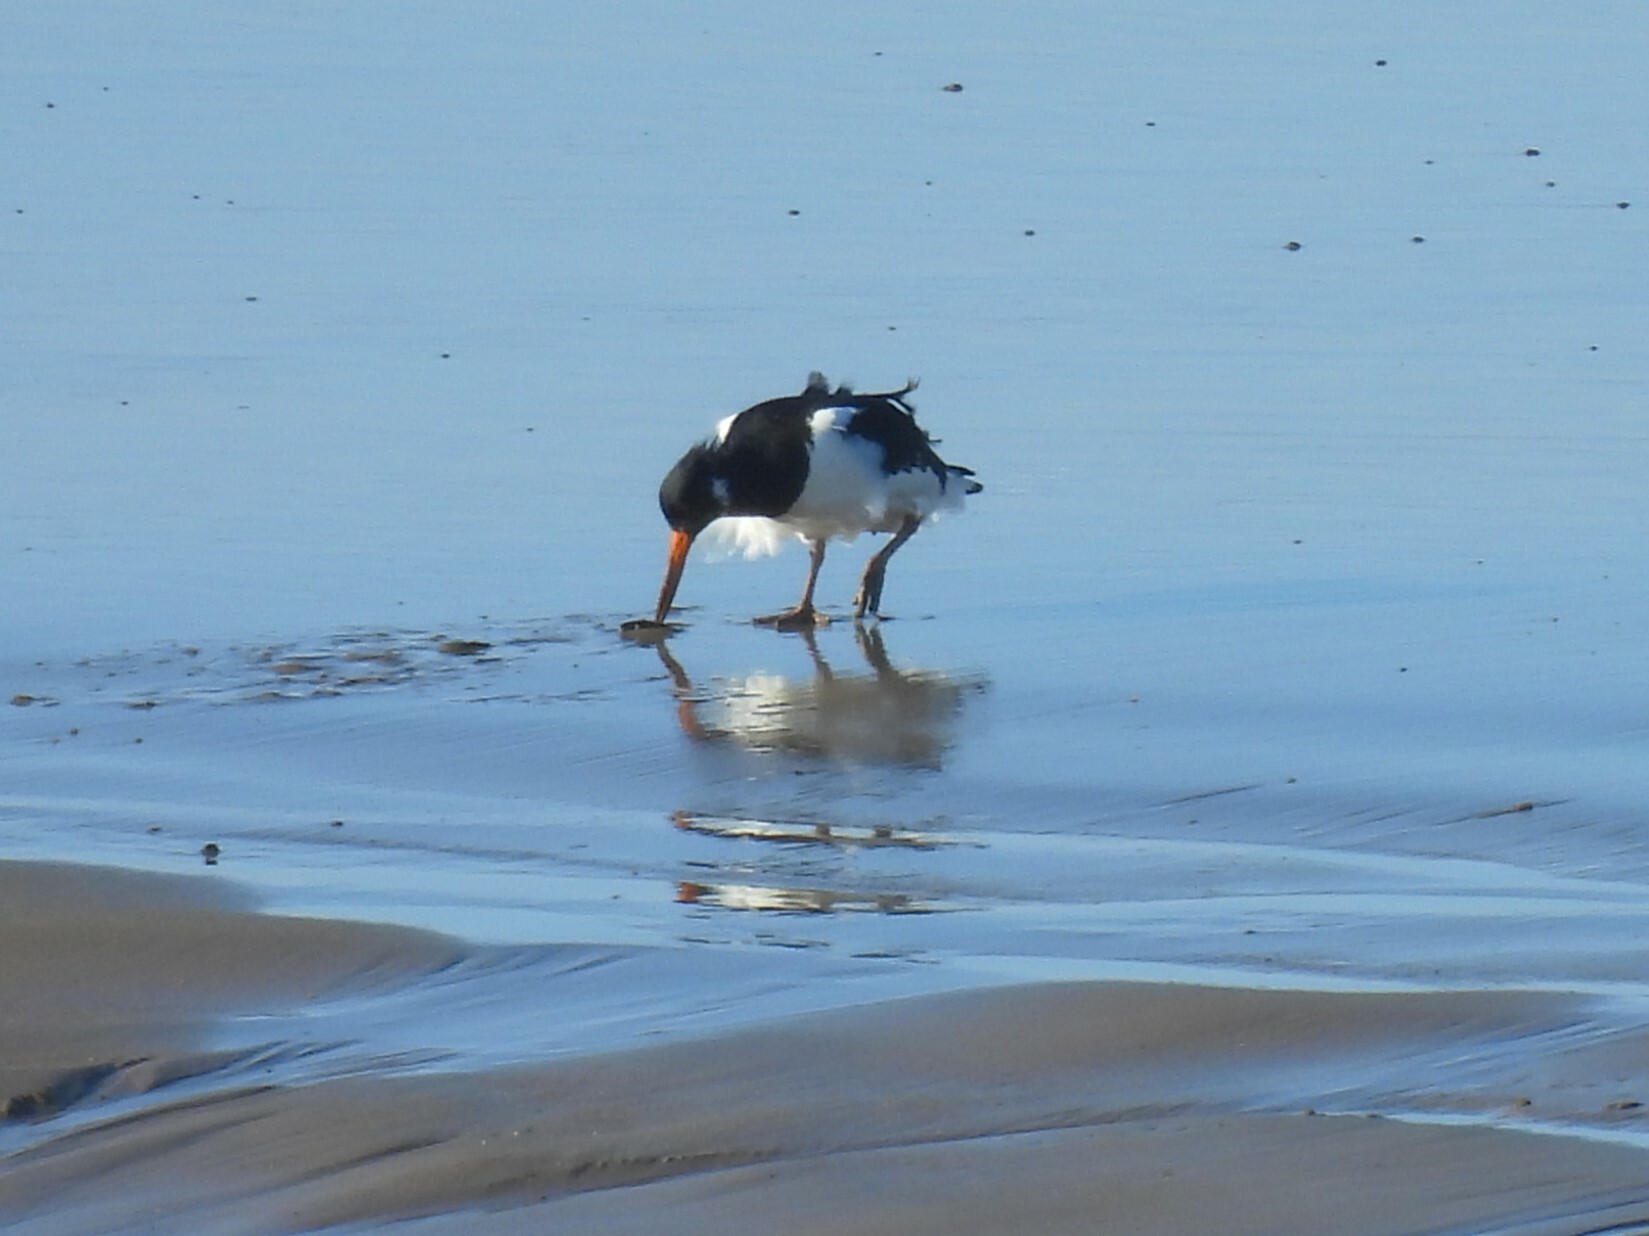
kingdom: Animalia
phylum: Chordata
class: Aves
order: Charadriiformes
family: Haematopodidae
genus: Haematopus
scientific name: Haematopus ostralegus
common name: Eurasian oystercatcher
